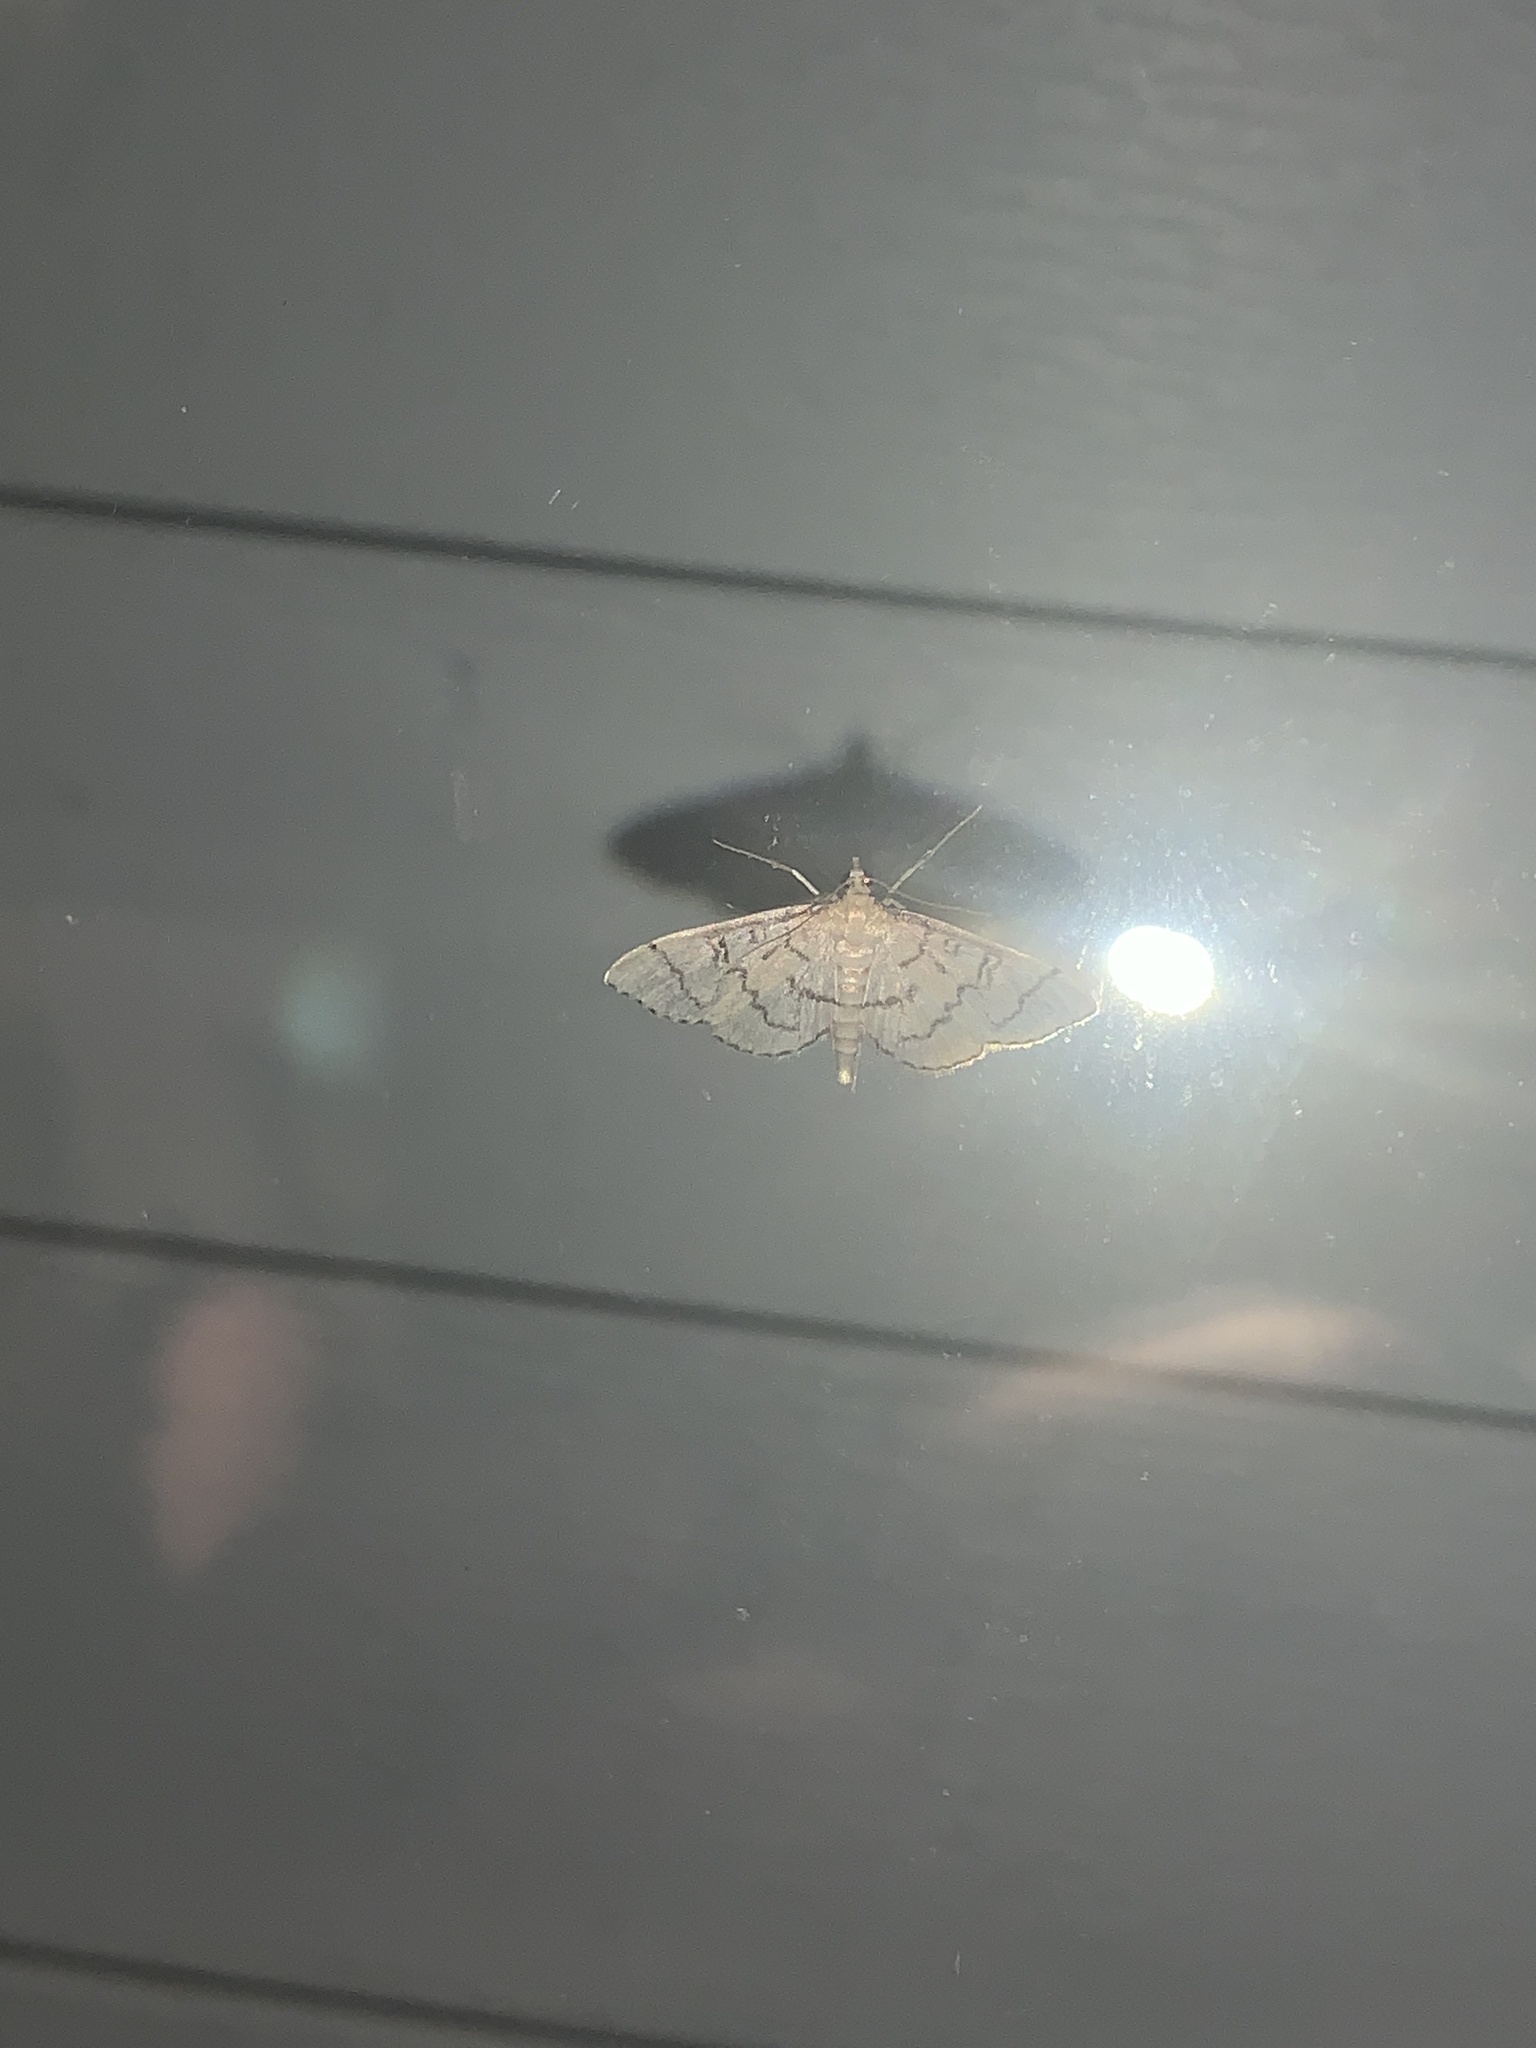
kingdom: Animalia
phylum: Arthropoda
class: Insecta
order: Lepidoptera
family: Crambidae
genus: Lamprosema
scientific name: Lamprosema Blepharomastix ranalis
